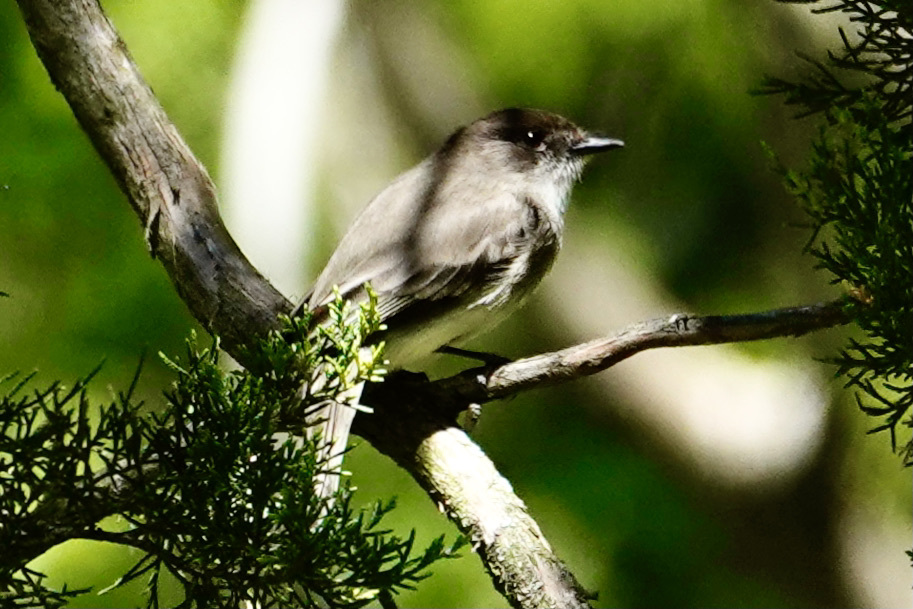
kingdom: Animalia
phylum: Chordata
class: Aves
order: Passeriformes
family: Tyrannidae
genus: Sayornis
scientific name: Sayornis phoebe
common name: Eastern phoebe
